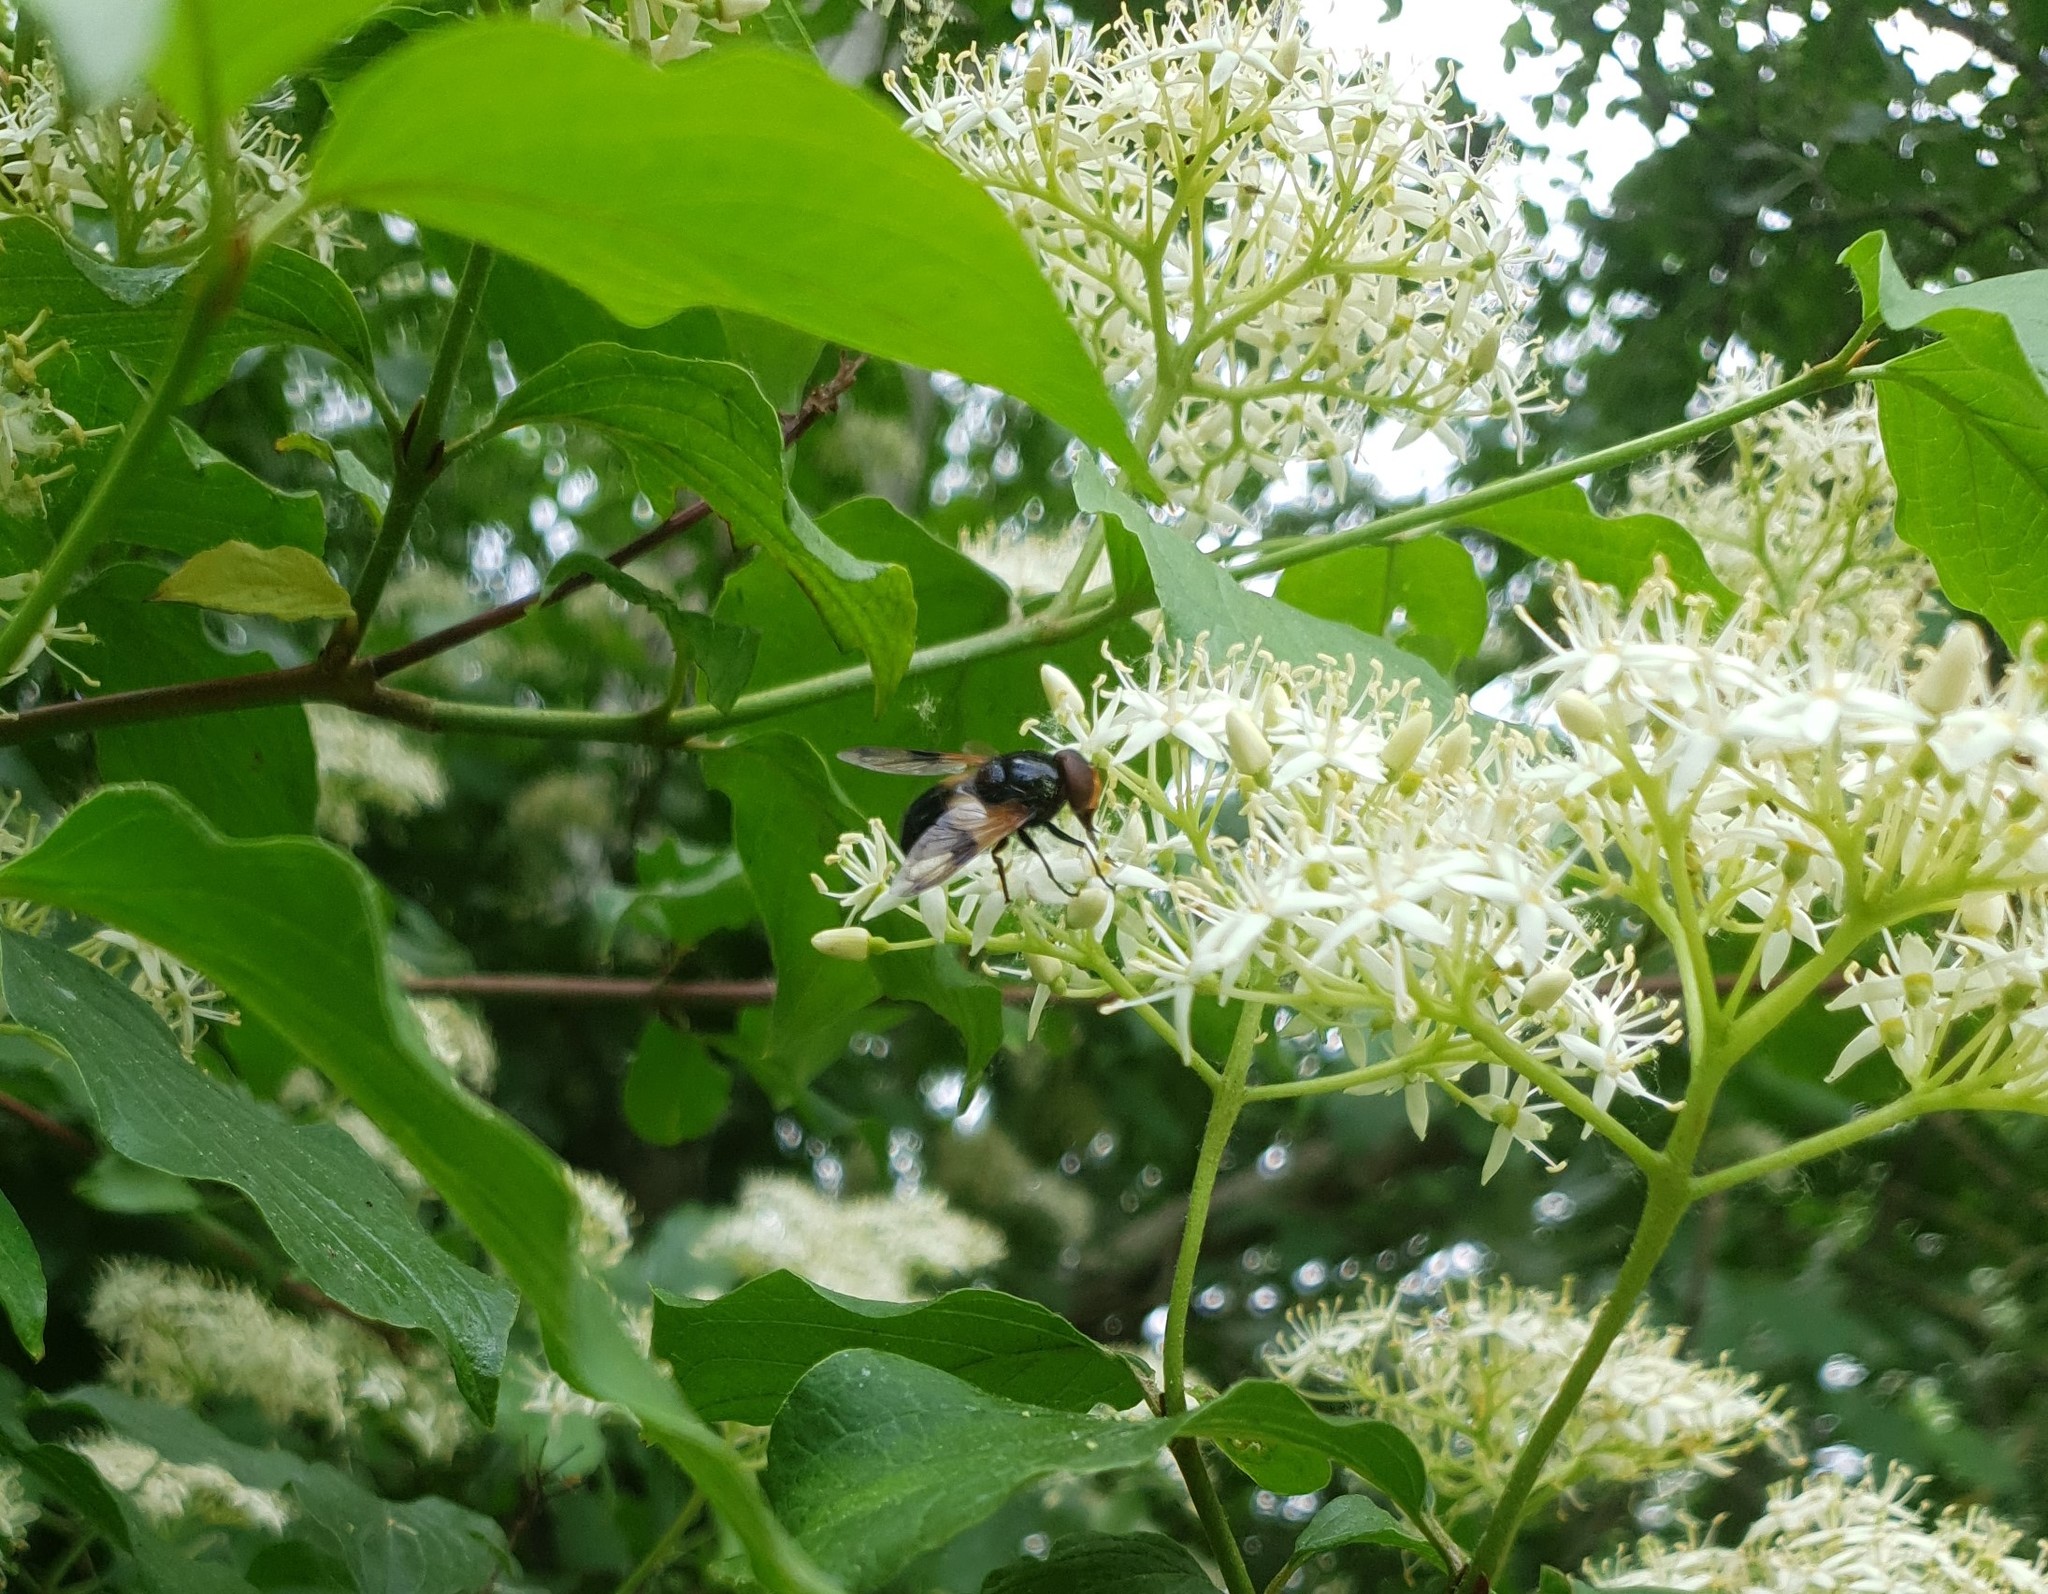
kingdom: Animalia
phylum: Arthropoda
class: Insecta
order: Diptera
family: Syrphidae
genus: Volucella
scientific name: Volucella pellucens
